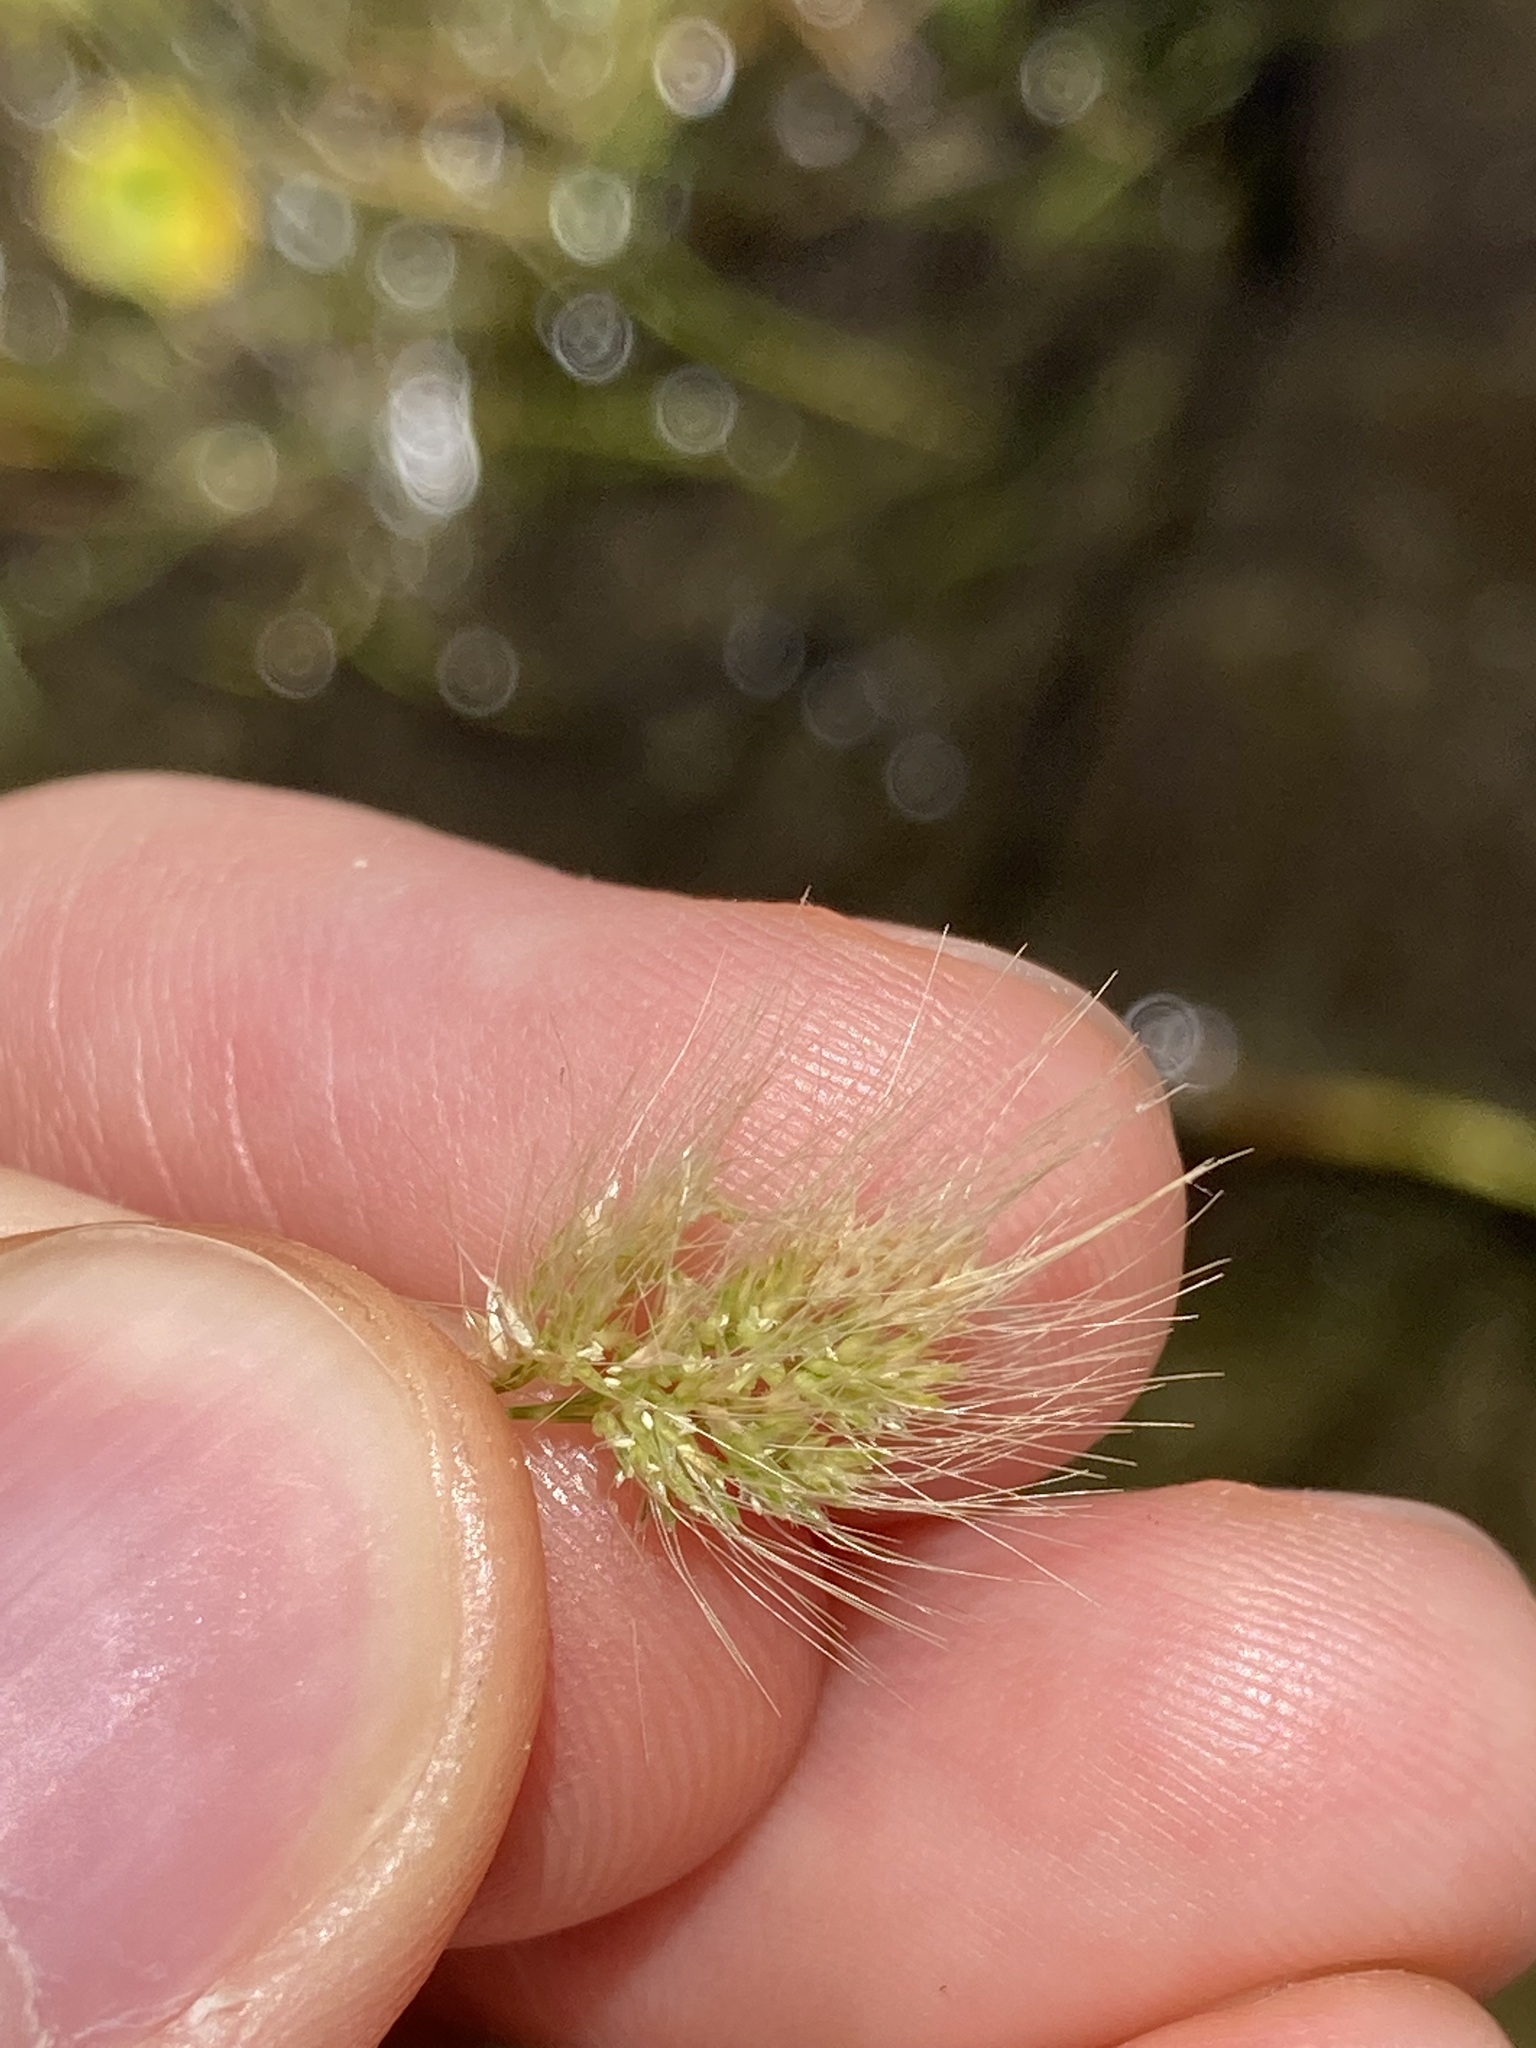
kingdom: Plantae
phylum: Tracheophyta
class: Liliopsida
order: Poales
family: Poaceae
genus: Polypogon
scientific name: Polypogon monspeliensis
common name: Annual rabbitsfoot grass
